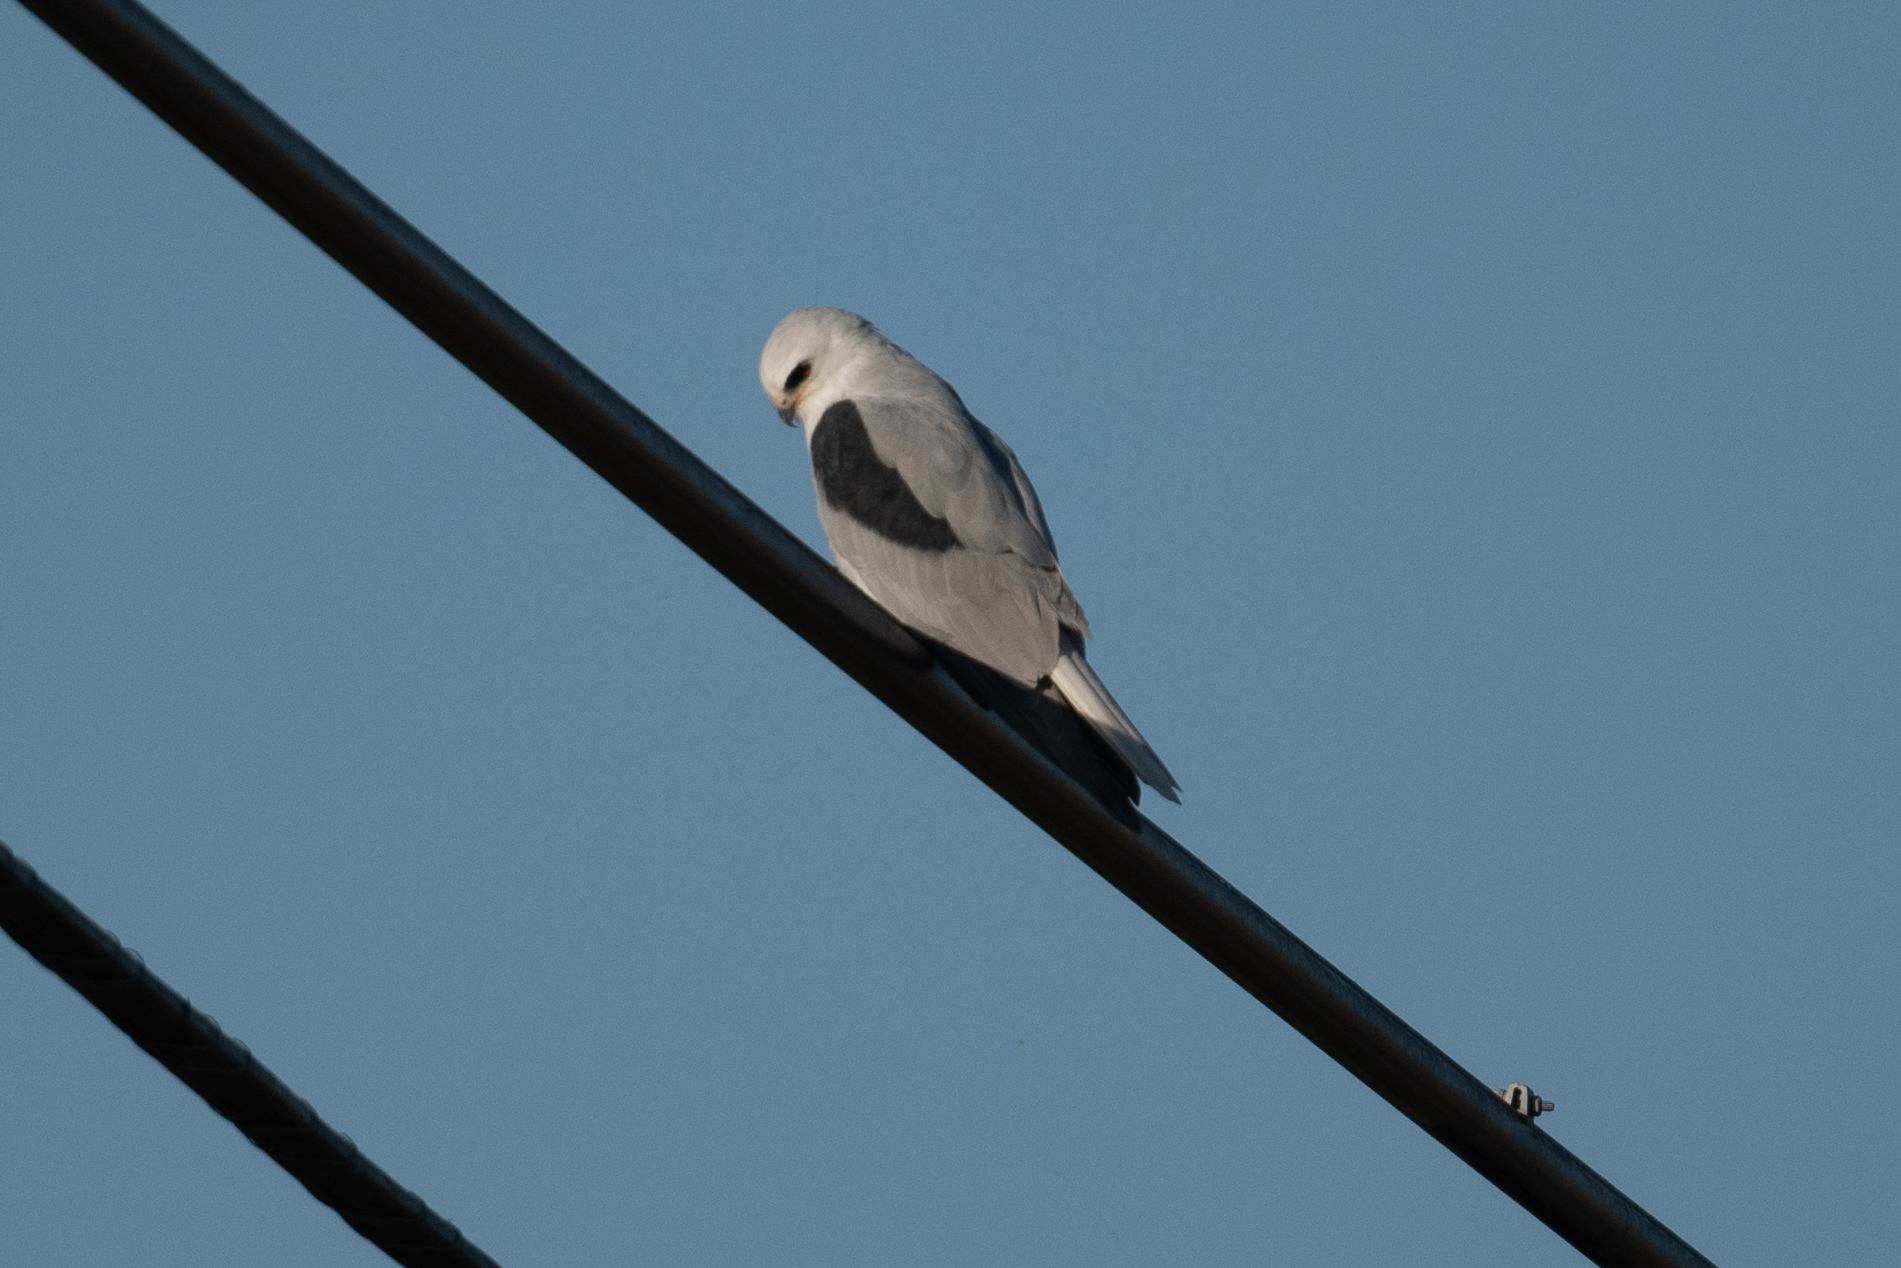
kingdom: Animalia
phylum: Chordata
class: Aves
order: Accipitriformes
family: Accipitridae
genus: Elanus
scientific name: Elanus leucurus
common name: White-tailed kite
